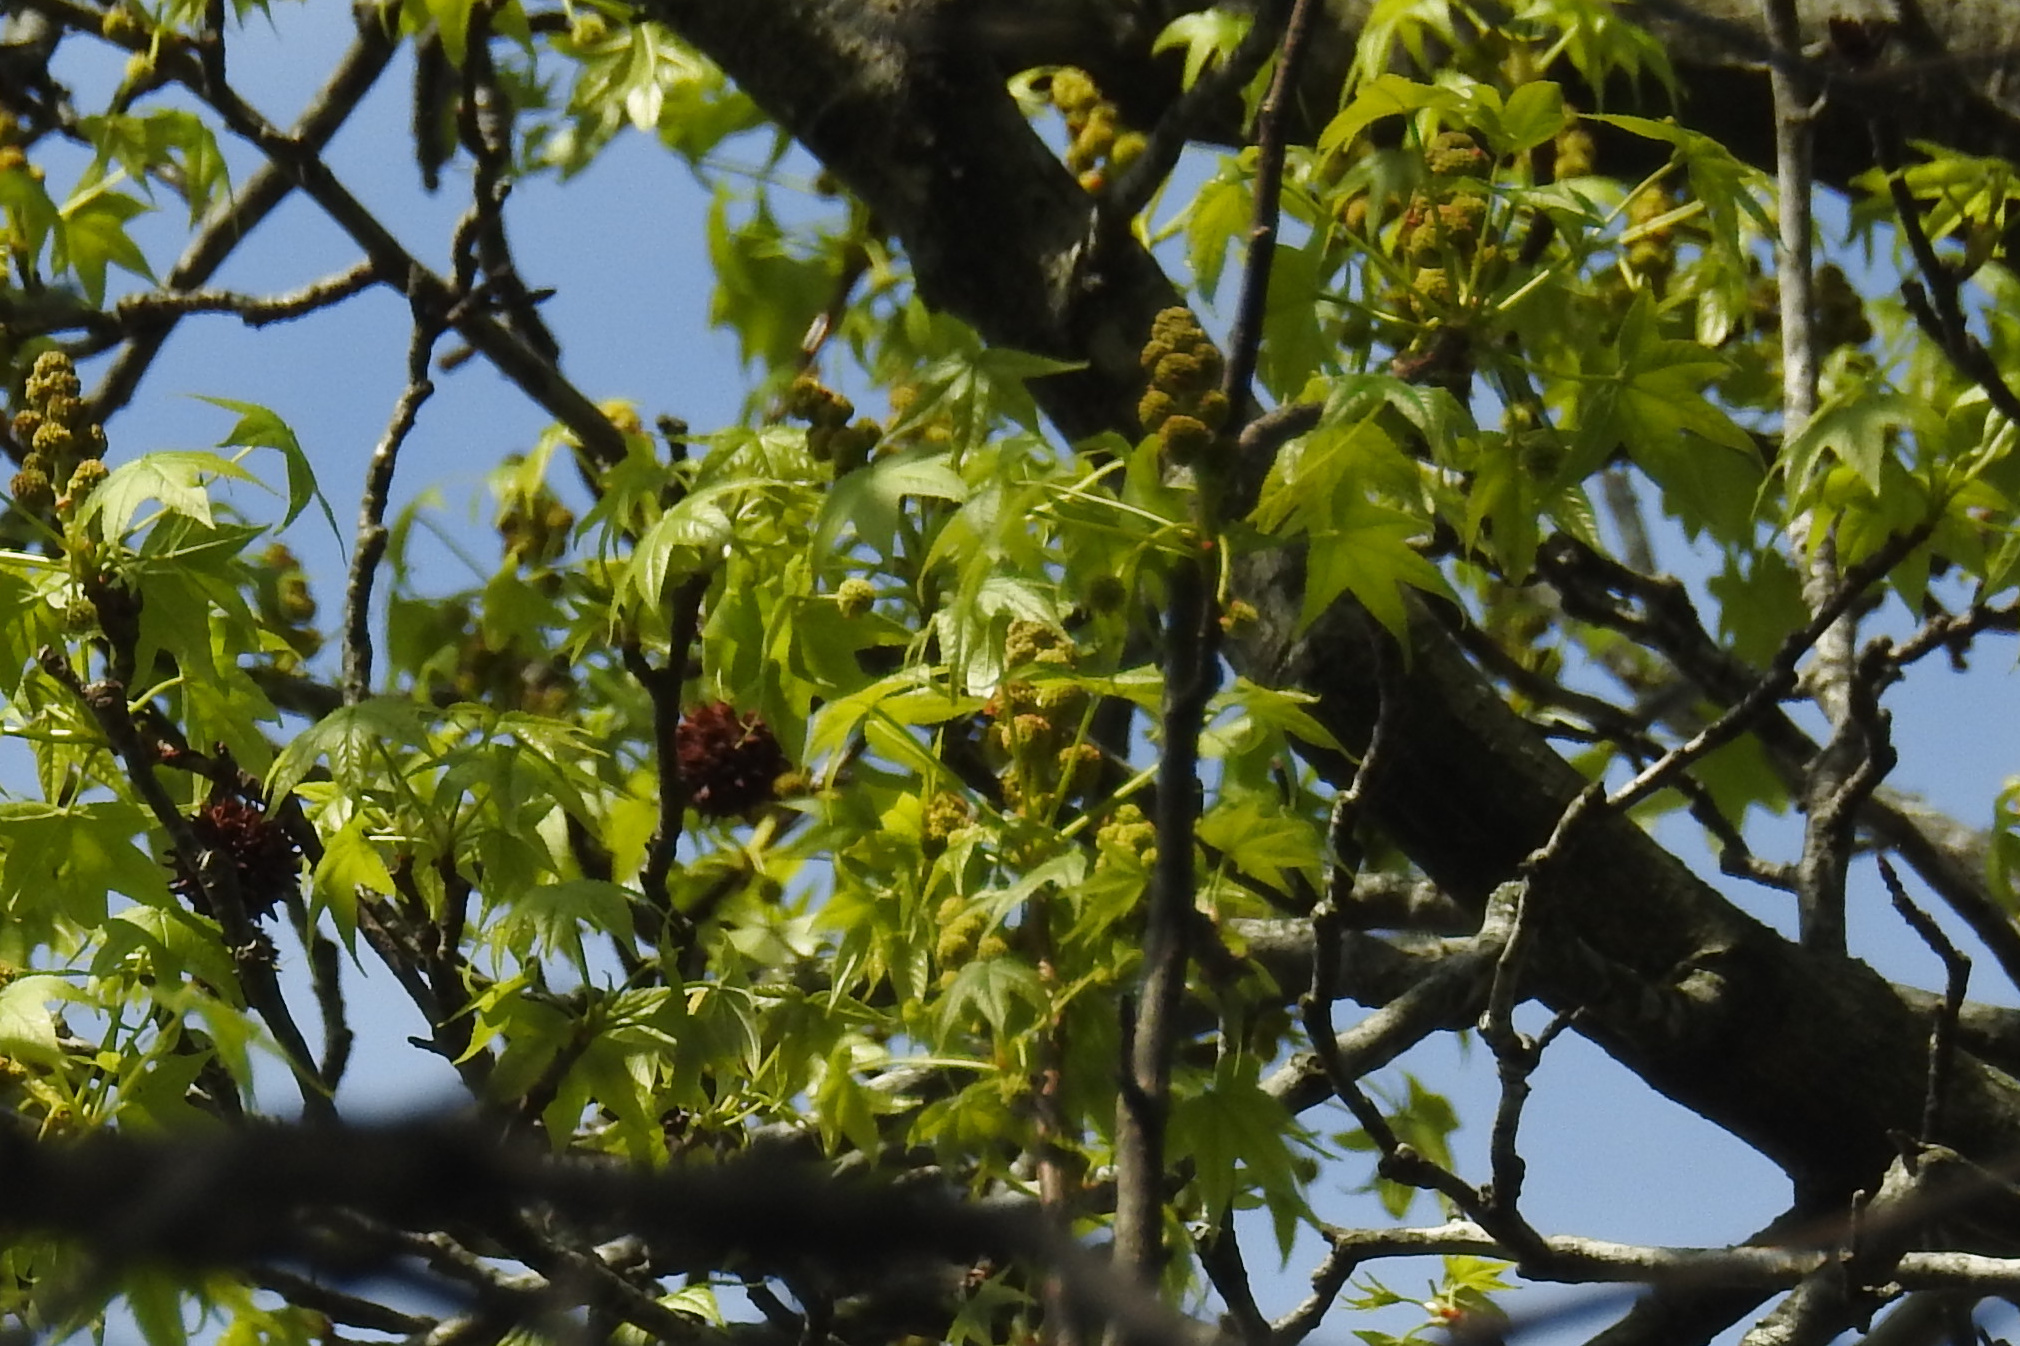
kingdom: Plantae
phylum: Tracheophyta
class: Magnoliopsida
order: Saxifragales
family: Altingiaceae
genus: Liquidambar
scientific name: Liquidambar styraciflua
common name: Sweet gum
